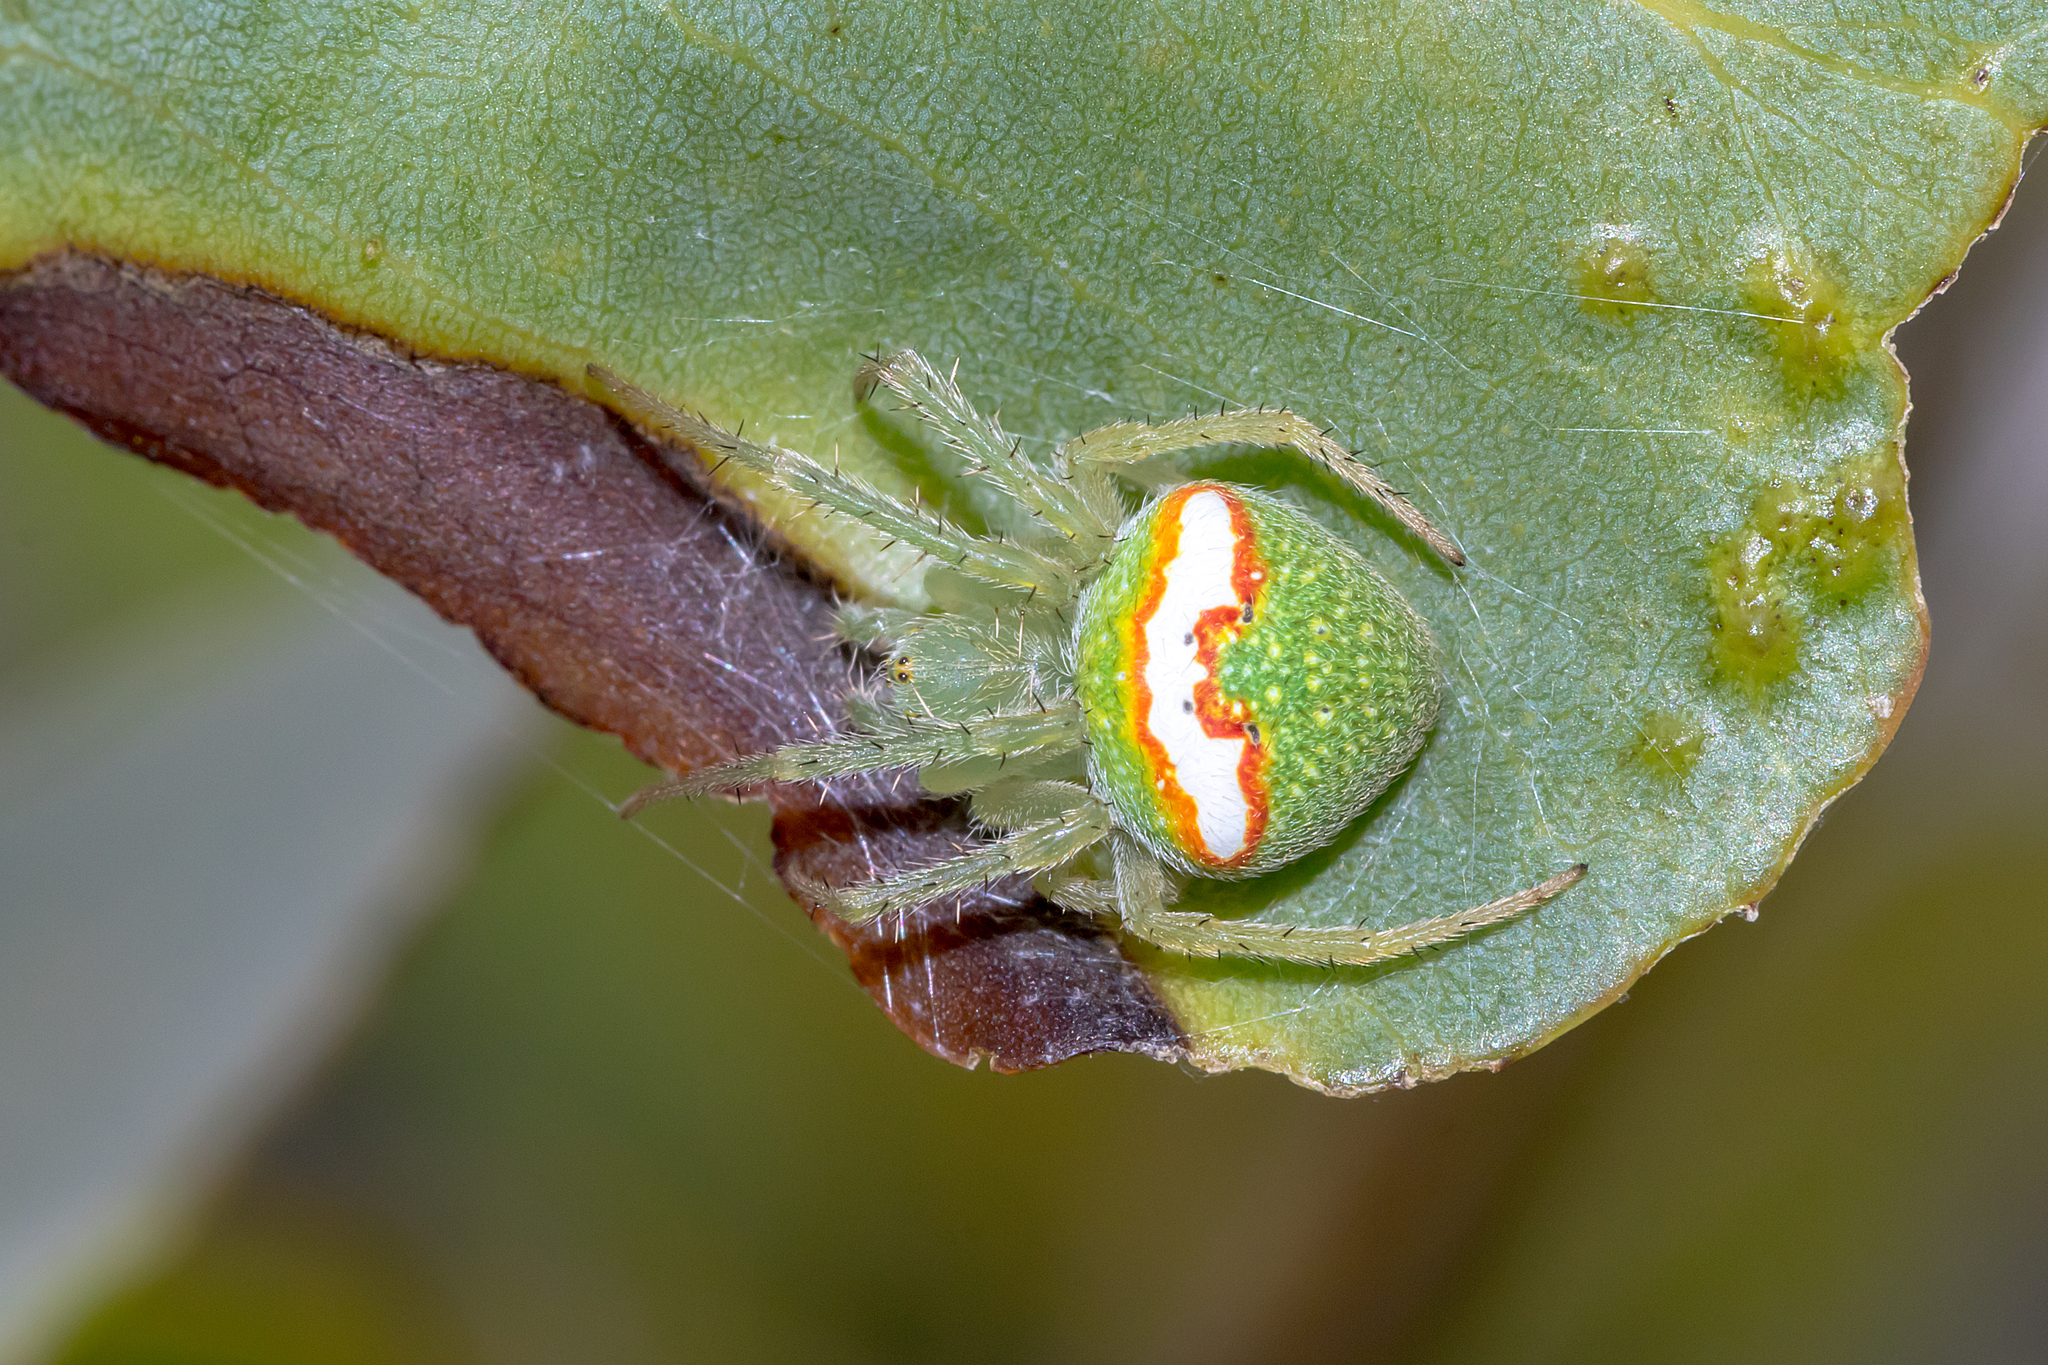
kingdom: Animalia
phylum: Arthropoda
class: Arachnida
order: Araneae
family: Araneidae
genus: Araneus
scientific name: Araneus circulissparsus
